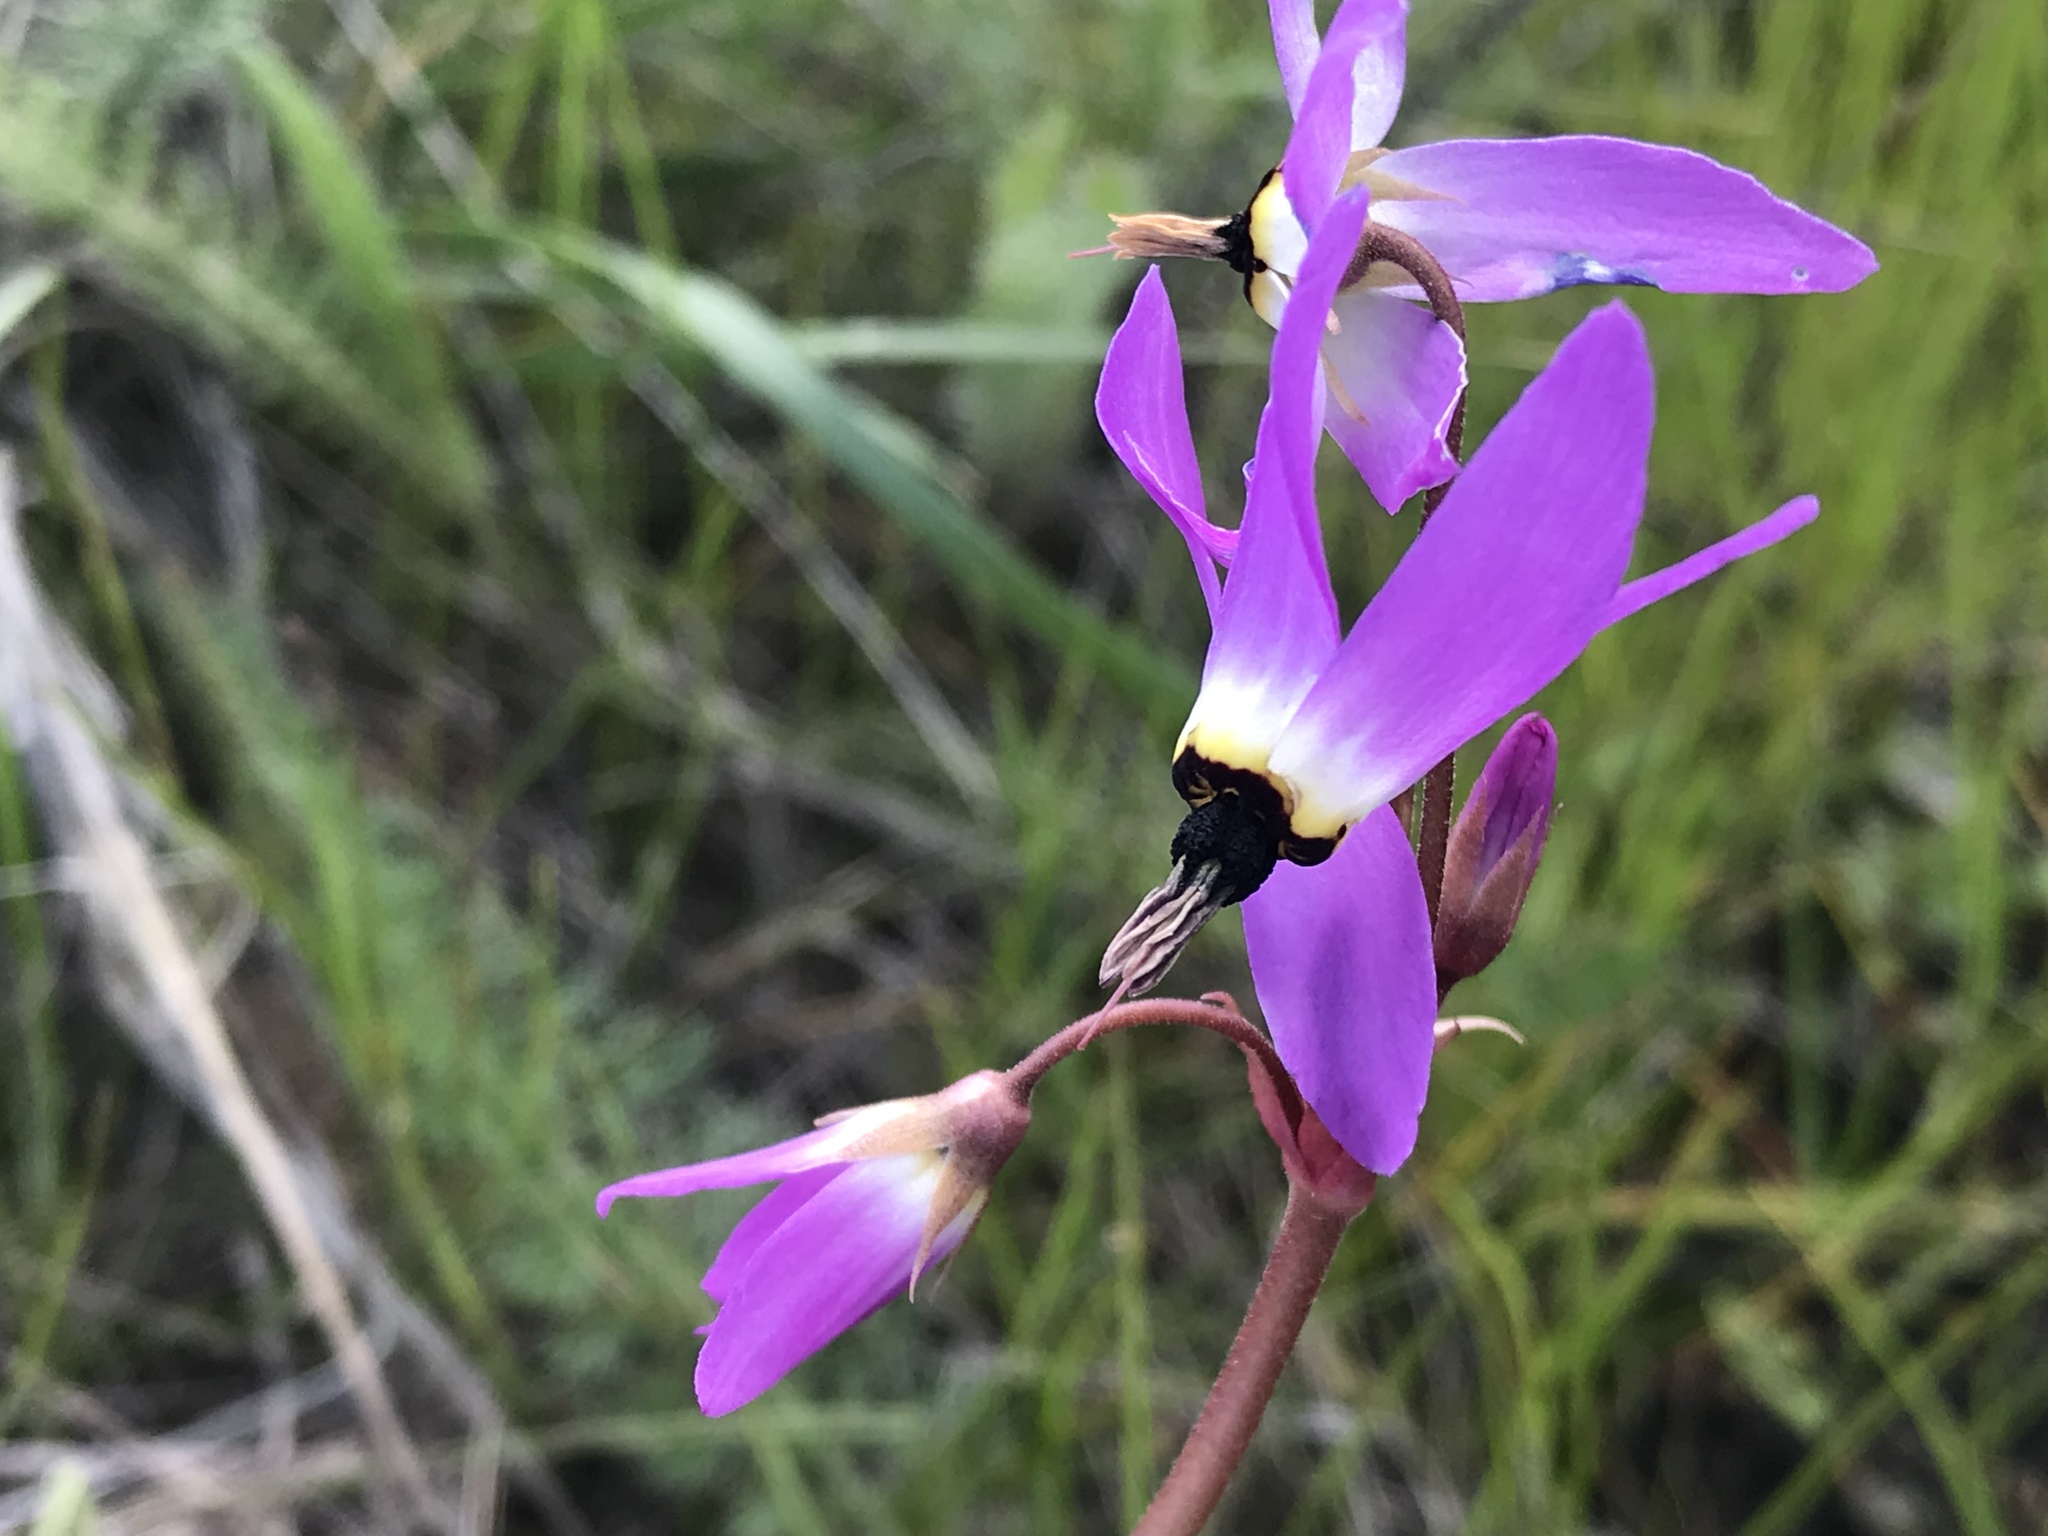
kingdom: Plantae
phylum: Tracheophyta
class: Magnoliopsida
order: Ericales
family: Primulaceae
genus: Dodecatheon
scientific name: Dodecatheon hendersonii
